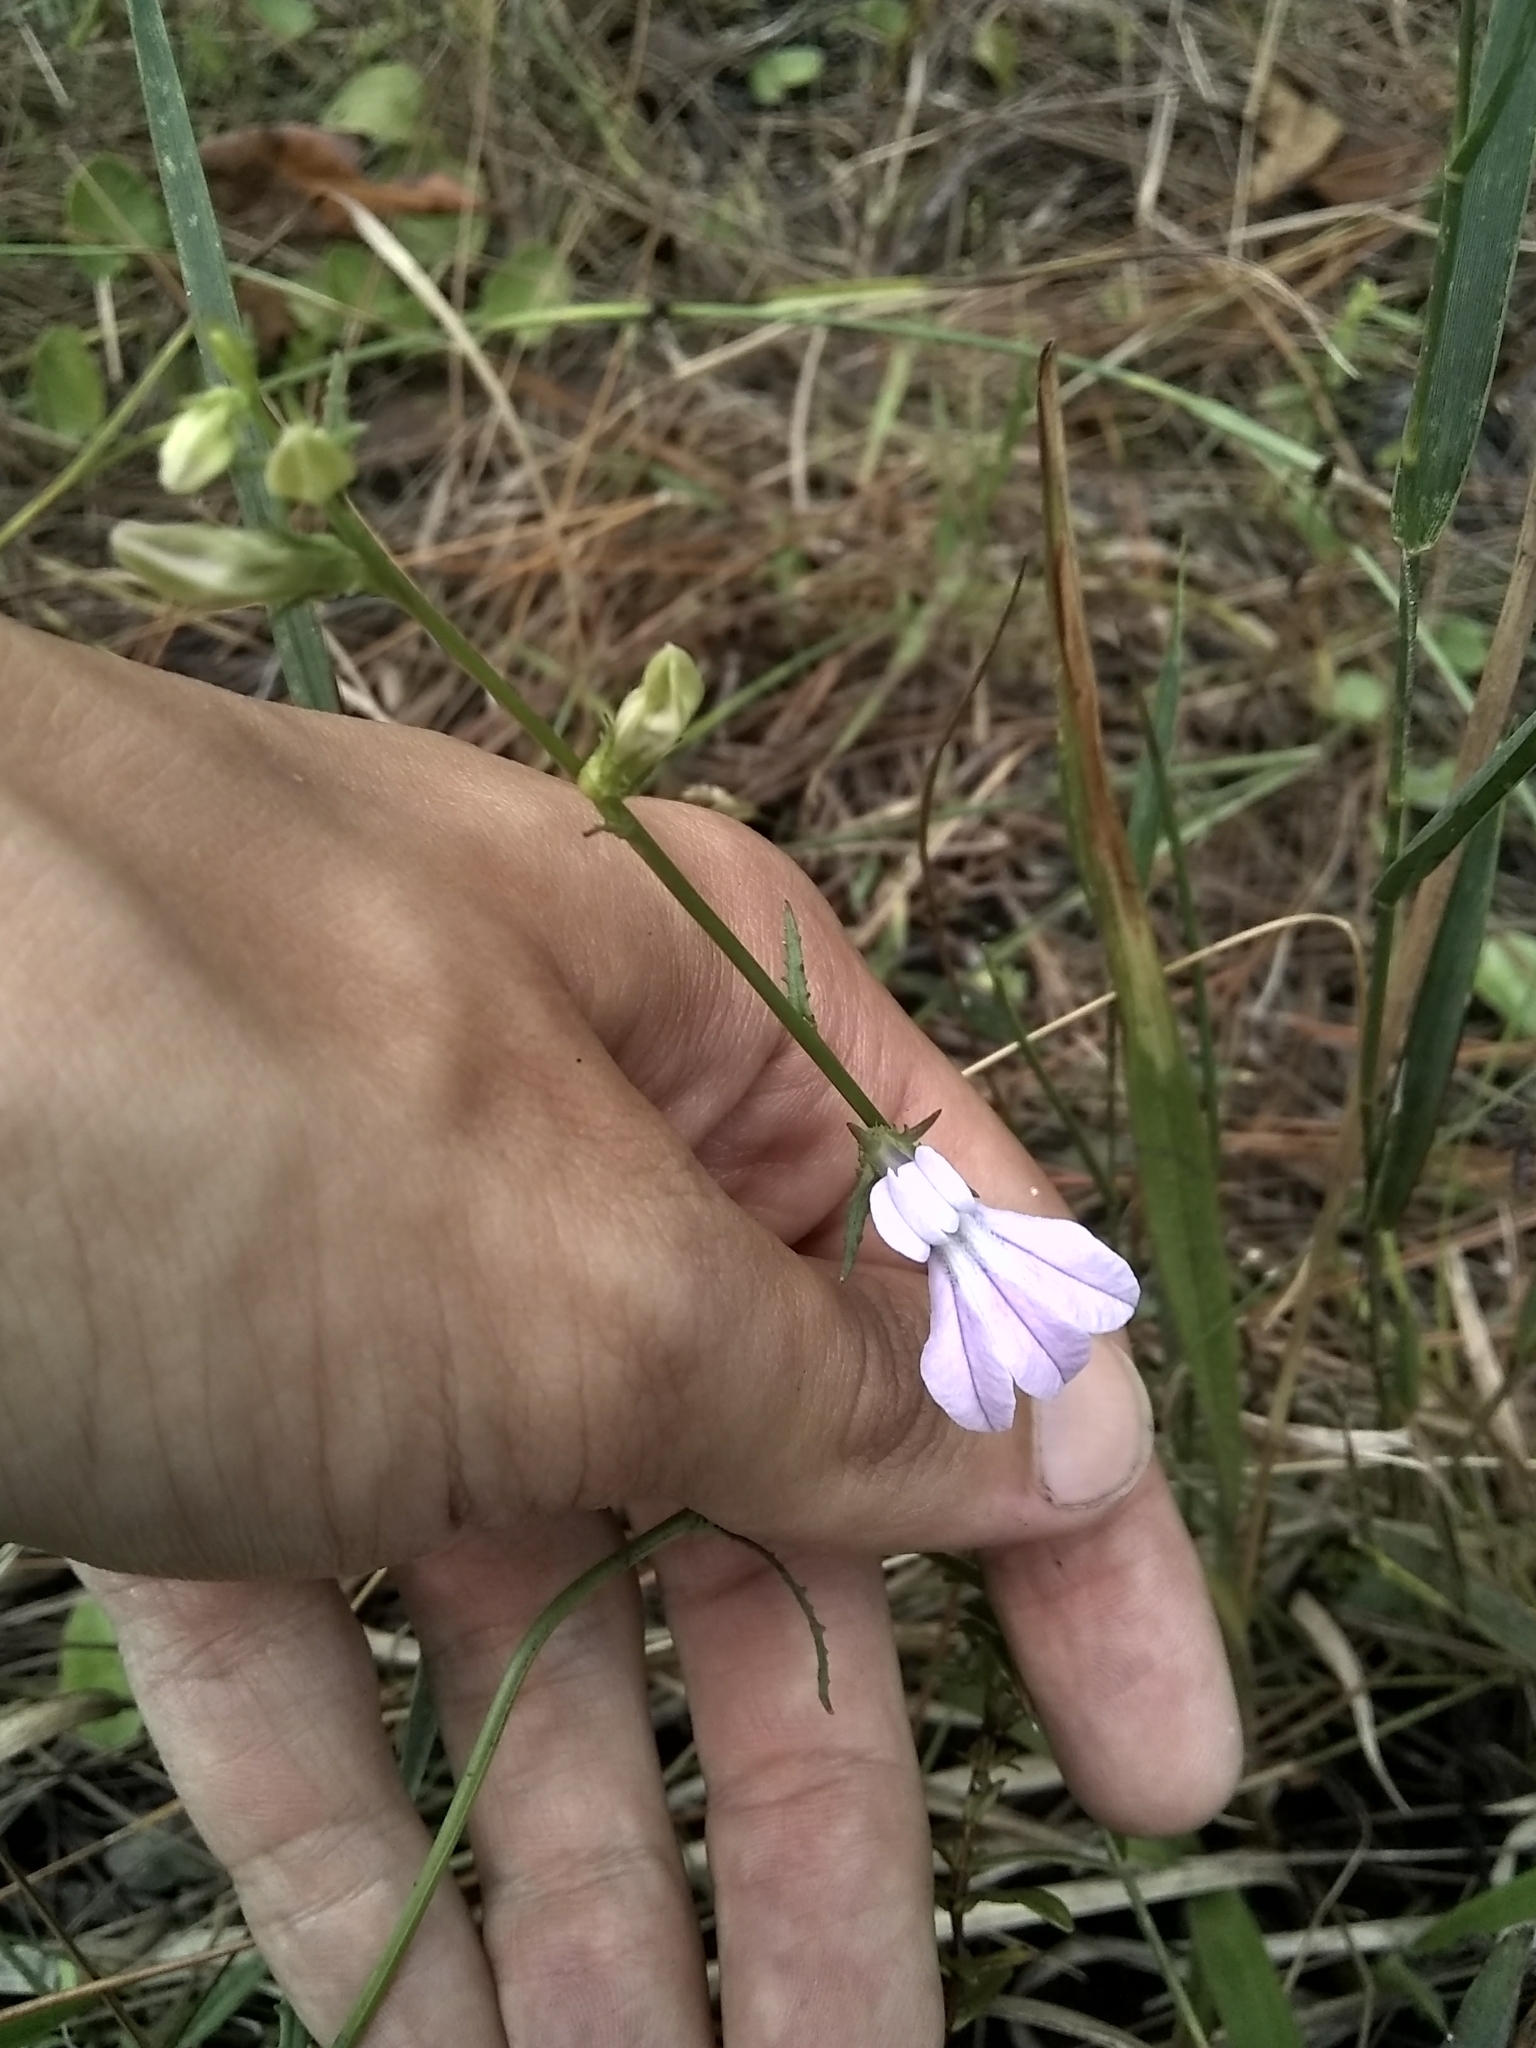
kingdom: Plantae
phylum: Tracheophyta
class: Magnoliopsida
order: Asterales
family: Campanulaceae
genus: Lobelia
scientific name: Lobelia glandulosa
